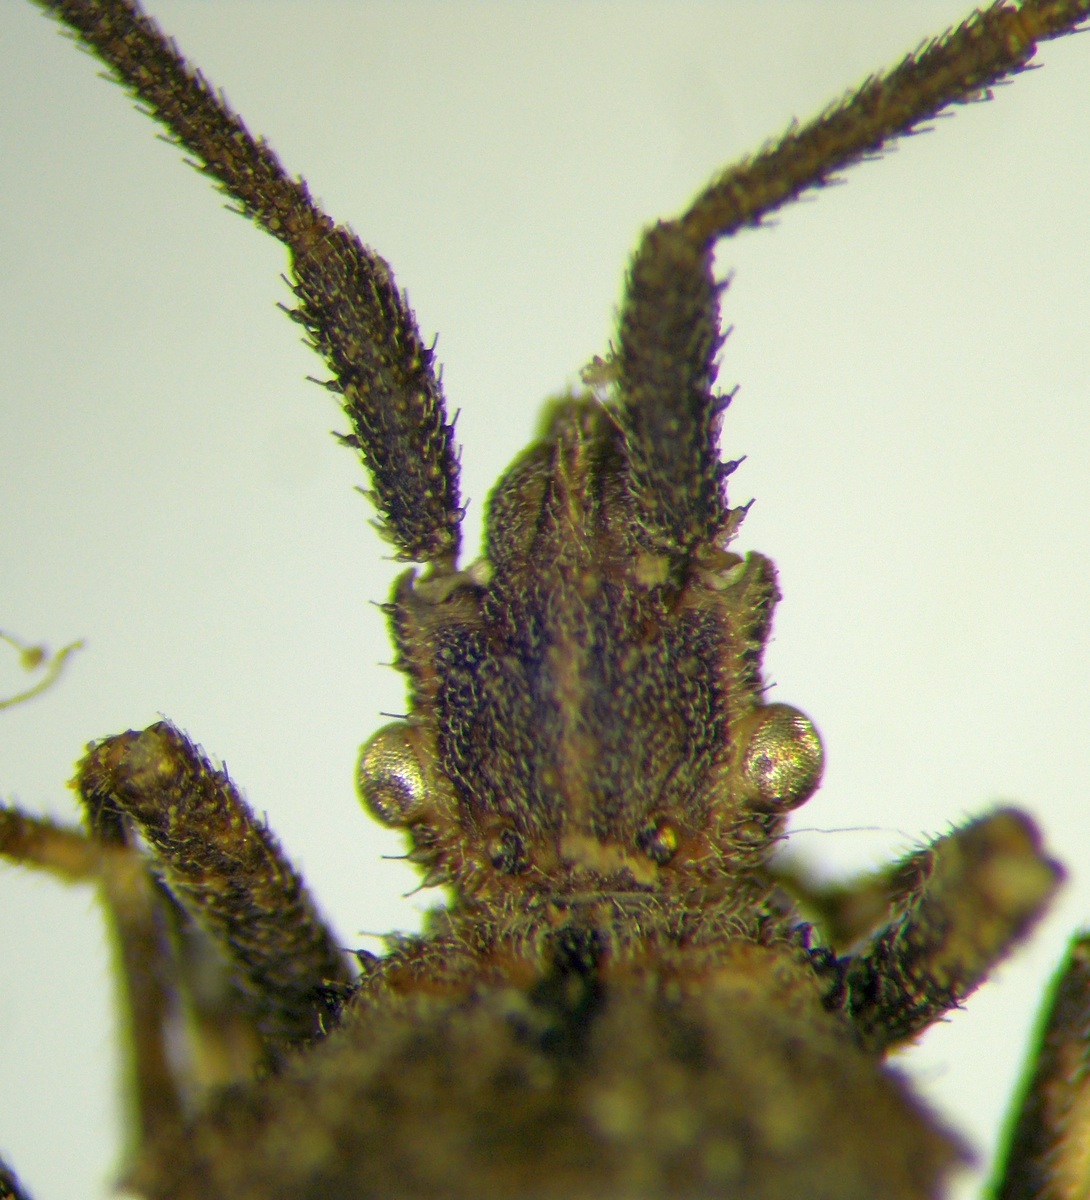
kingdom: Animalia
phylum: Arthropoda
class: Insecta
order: Hemiptera
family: Coreidae
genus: Bothrostethus
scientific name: Bothrostethus annulipes
